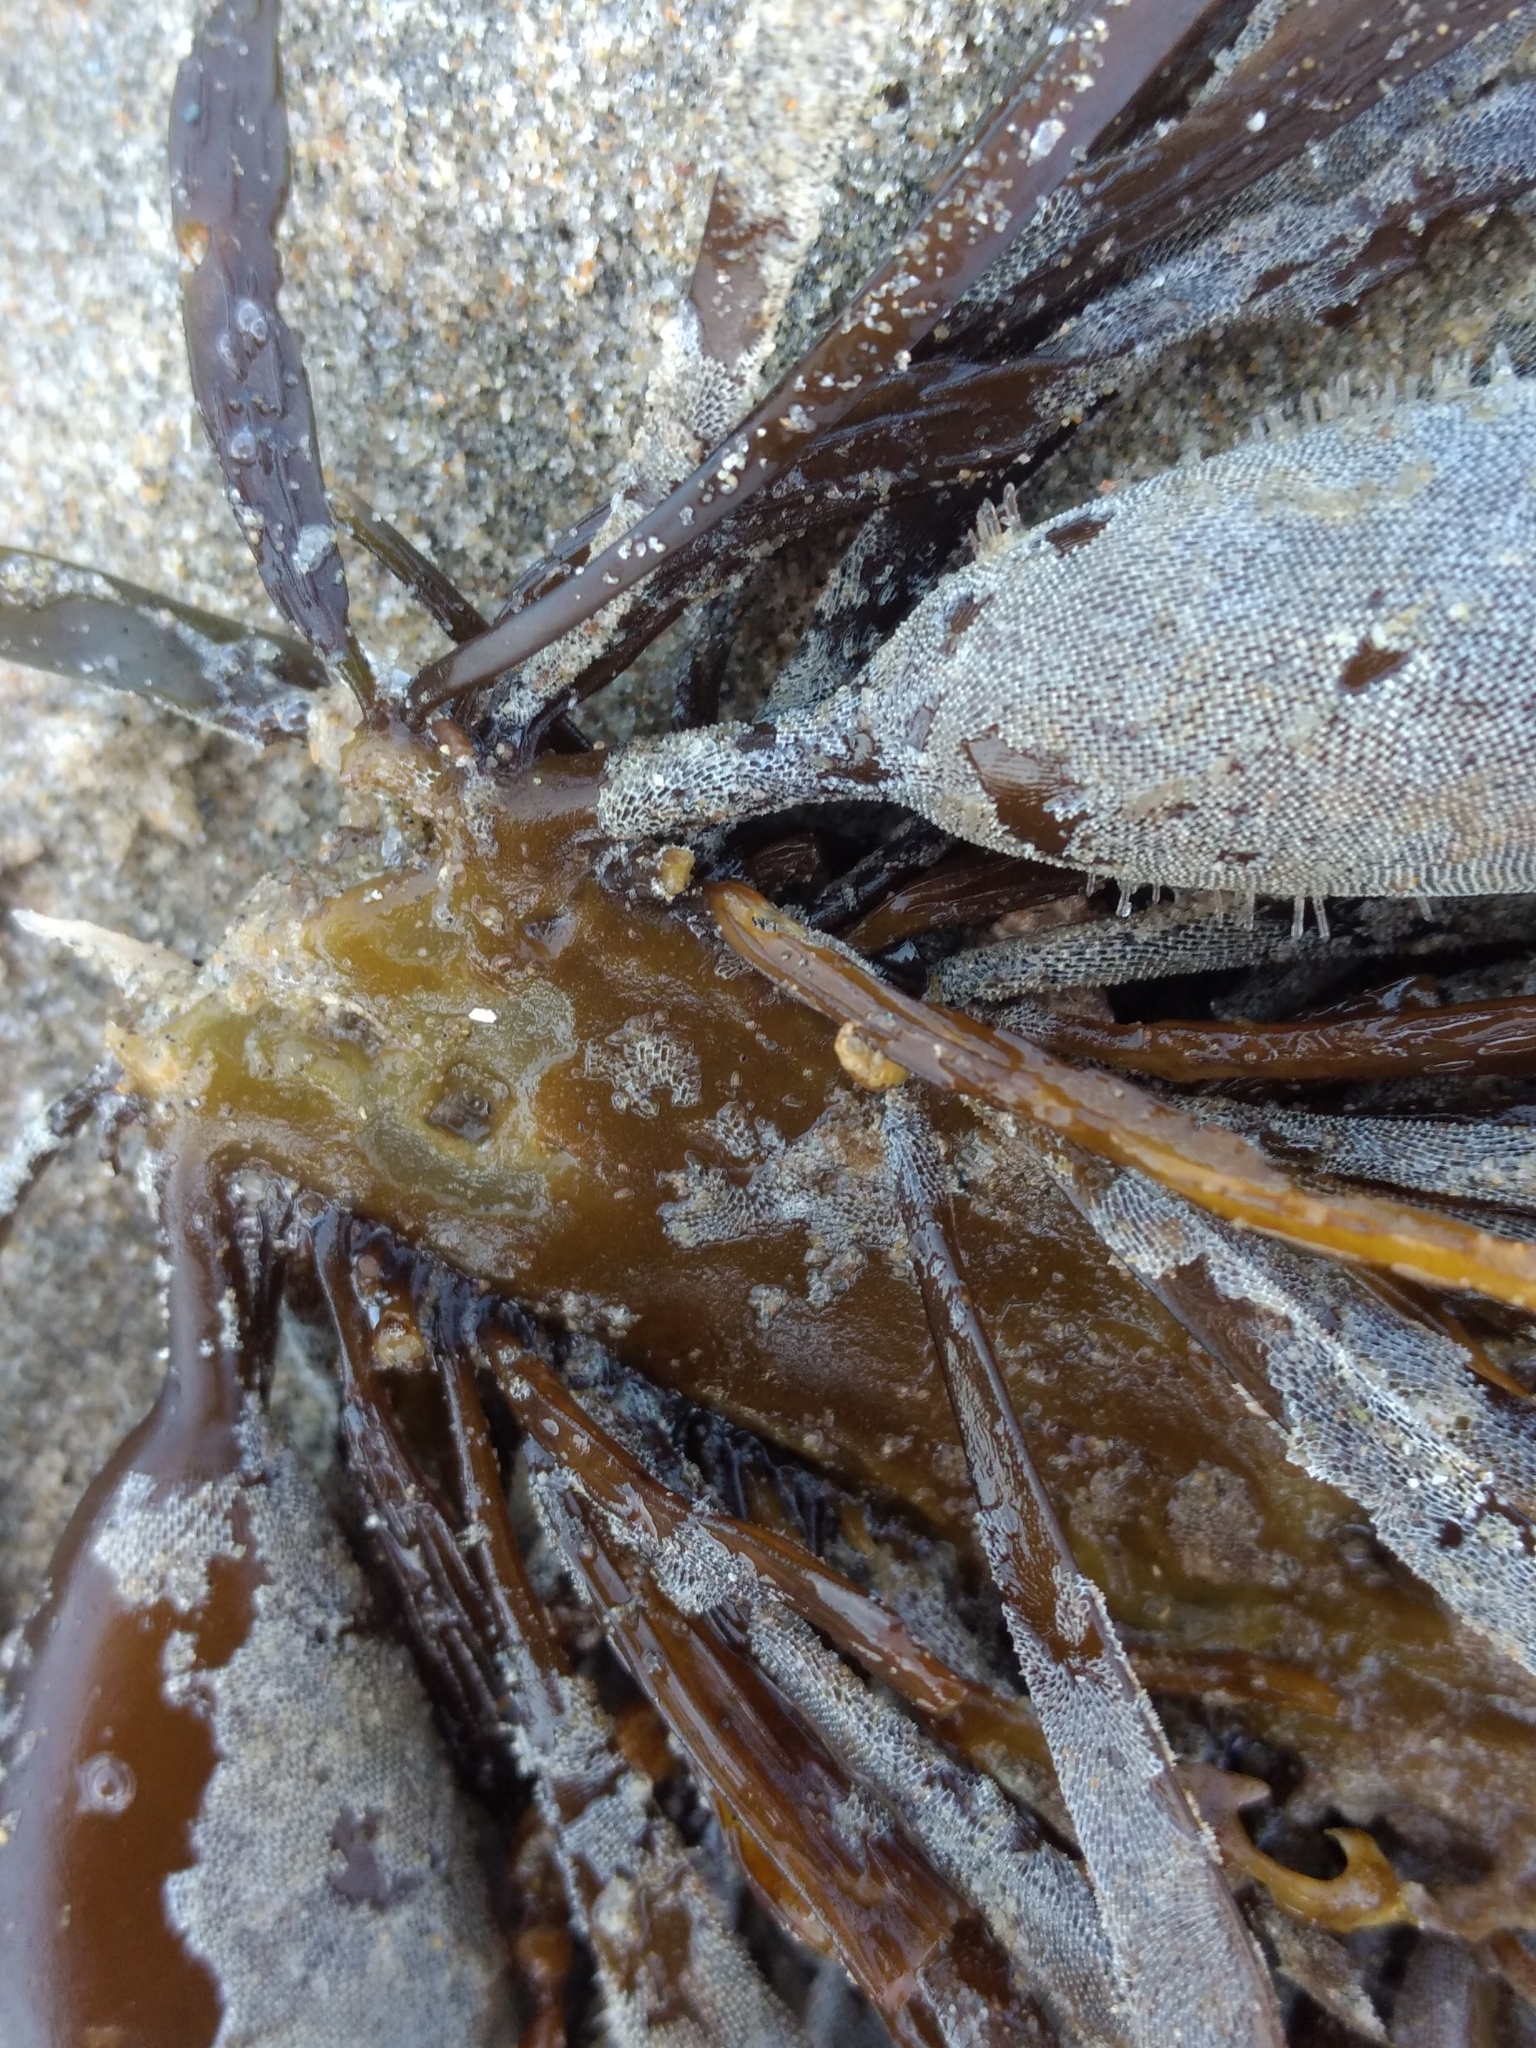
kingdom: Chromista
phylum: Ochrophyta
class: Phaeophyceae
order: Laminariales
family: Lessoniaceae
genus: Egregia
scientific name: Egregia menziesii
